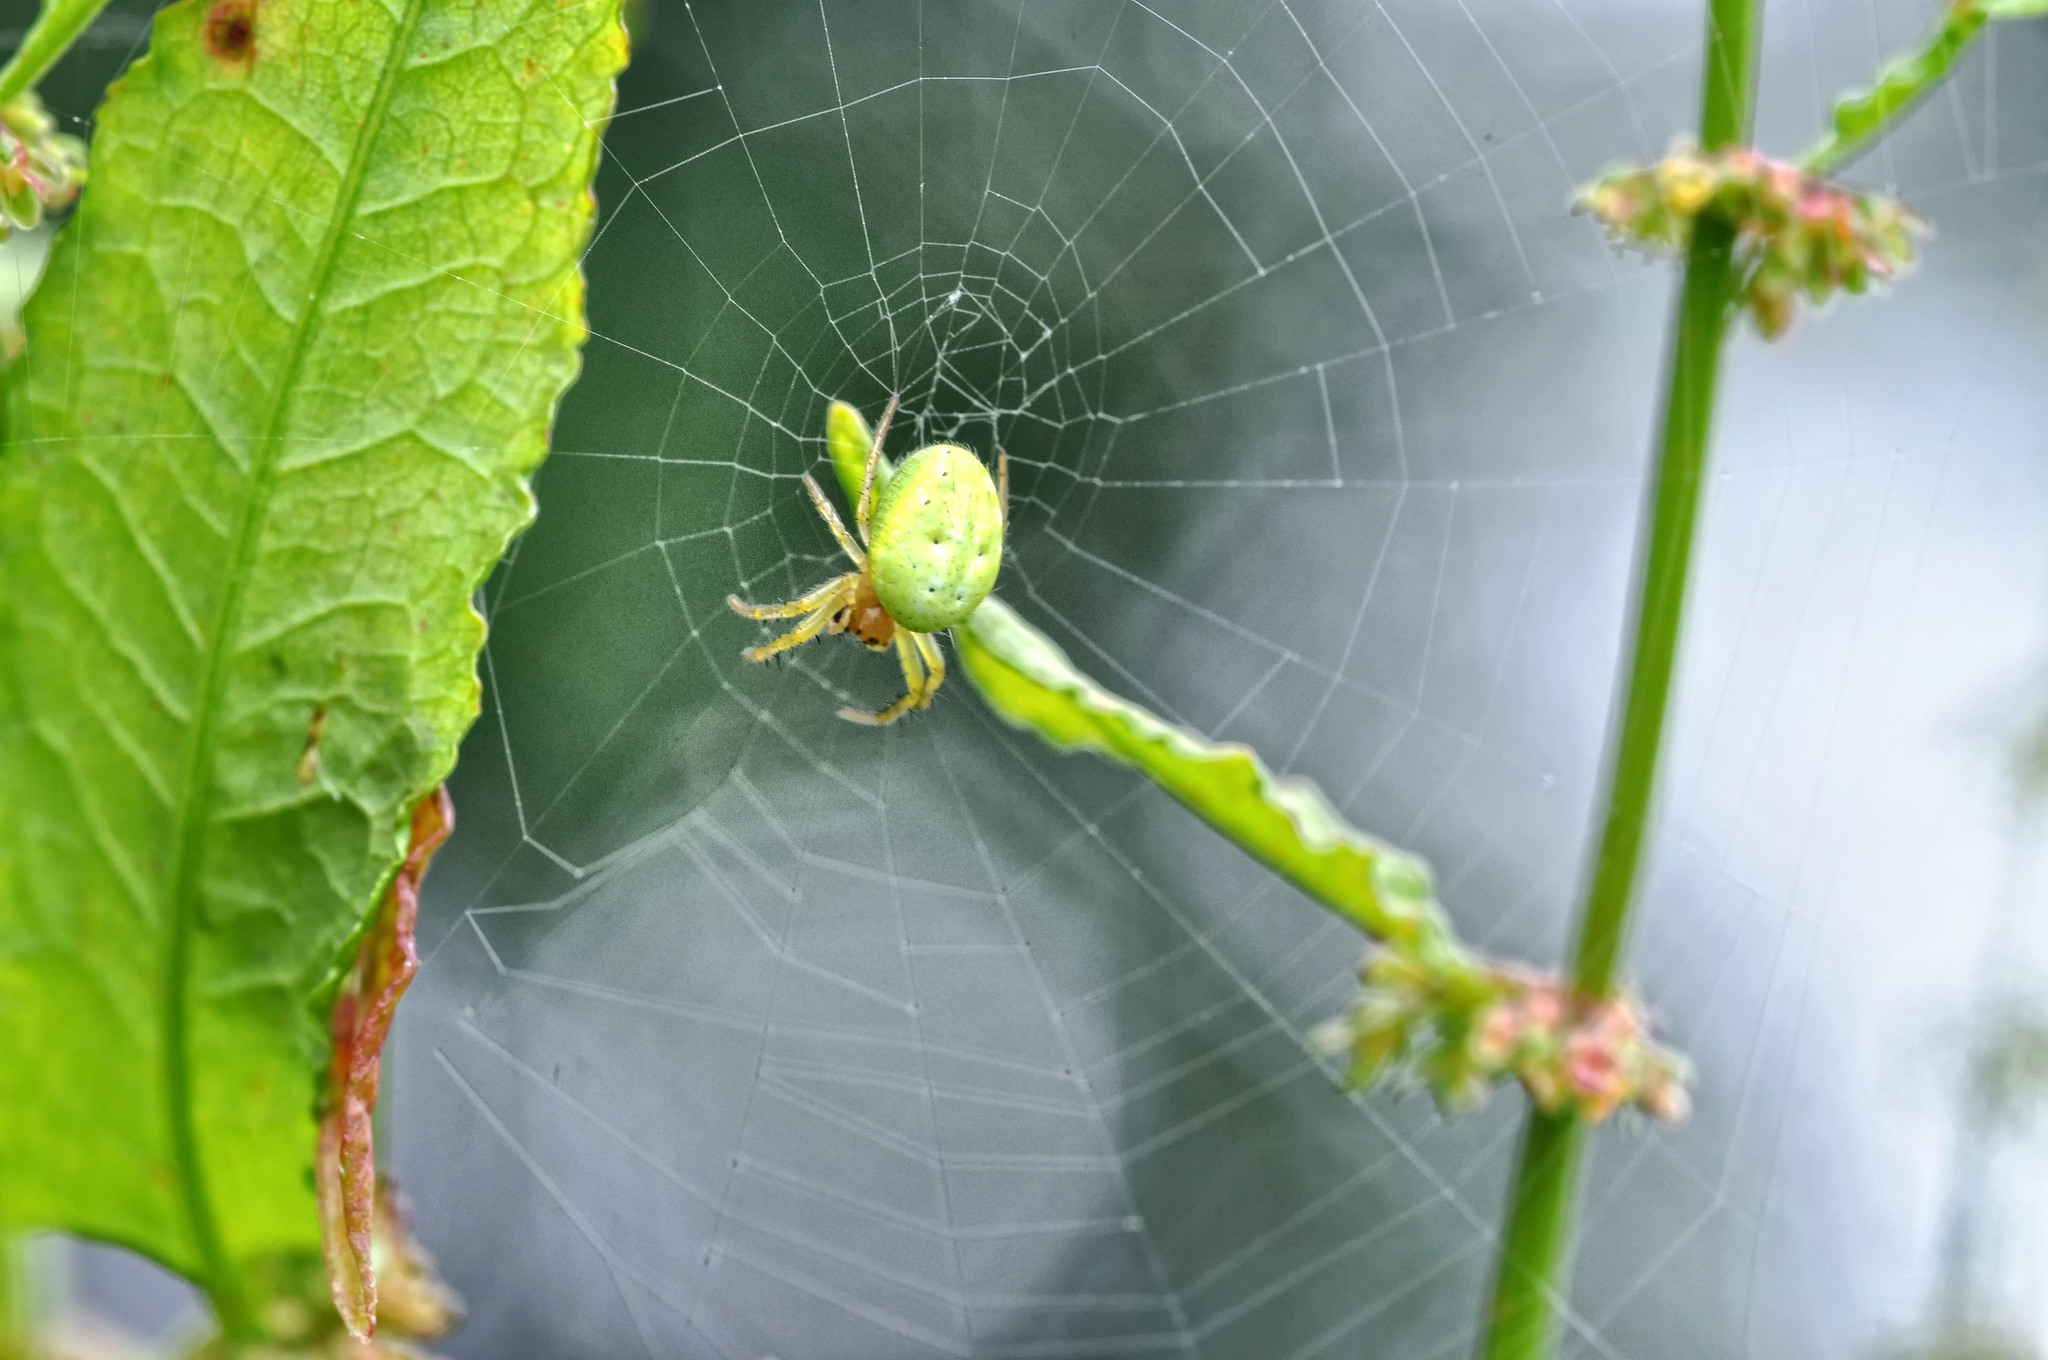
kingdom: Animalia
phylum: Arthropoda
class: Arachnida
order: Araneae
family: Araneidae
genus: Araniella
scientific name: Araniella
